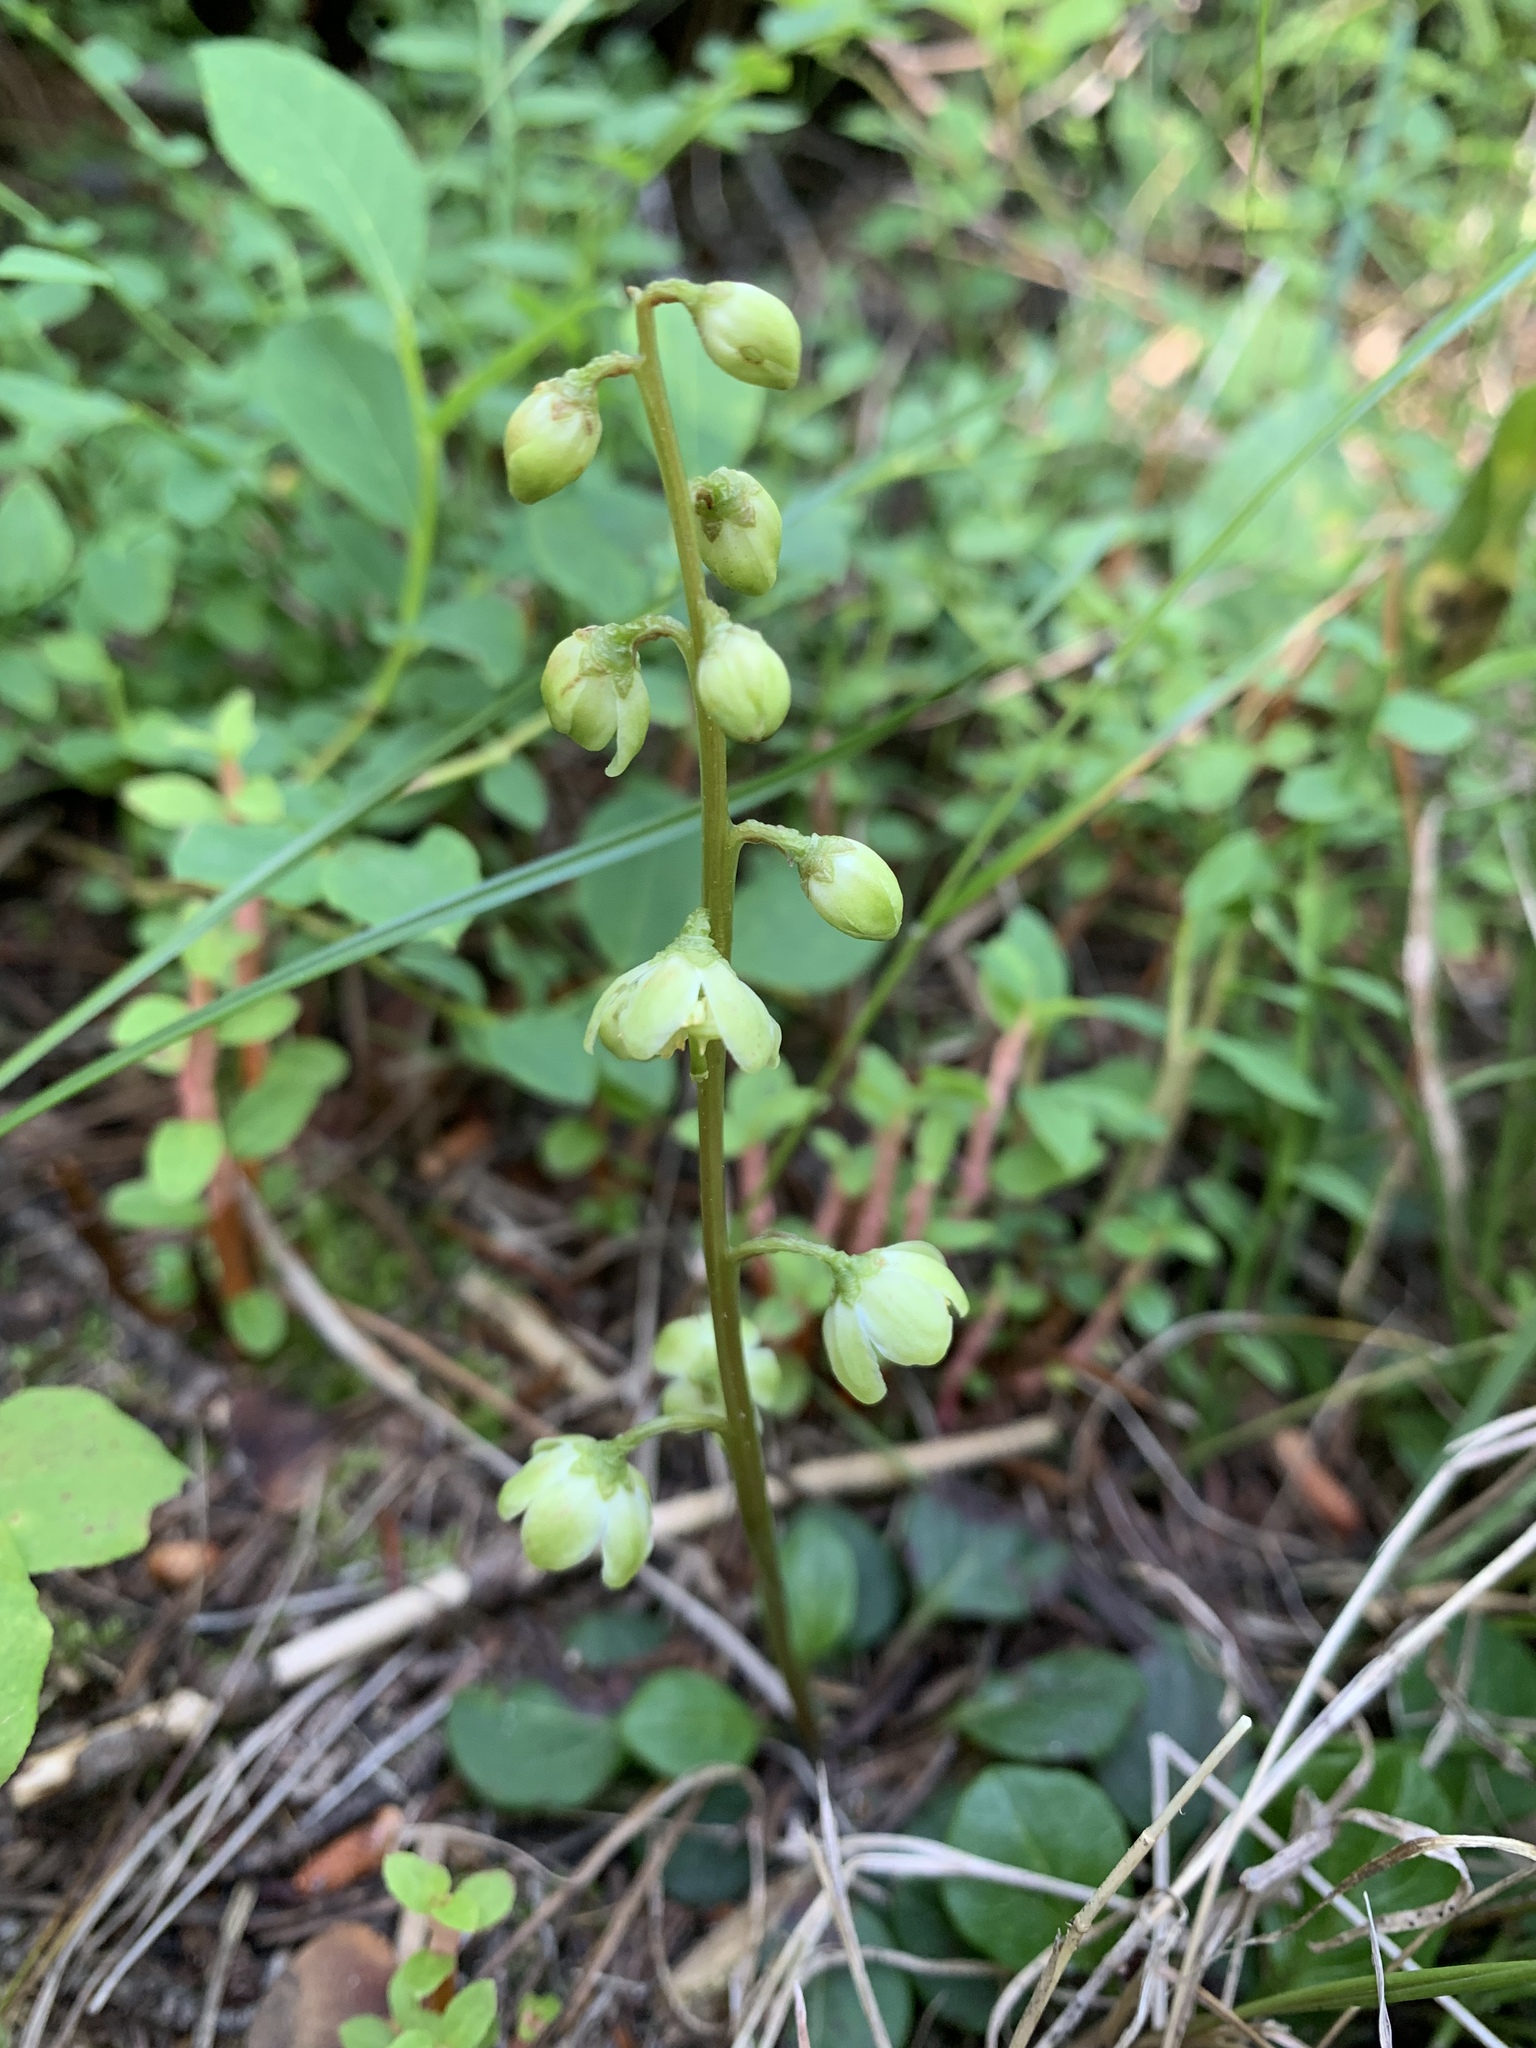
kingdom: Plantae
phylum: Tracheophyta
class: Magnoliopsida
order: Ericales
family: Ericaceae
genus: Pyrola
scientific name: Pyrola chlorantha
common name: Green wintergreen
